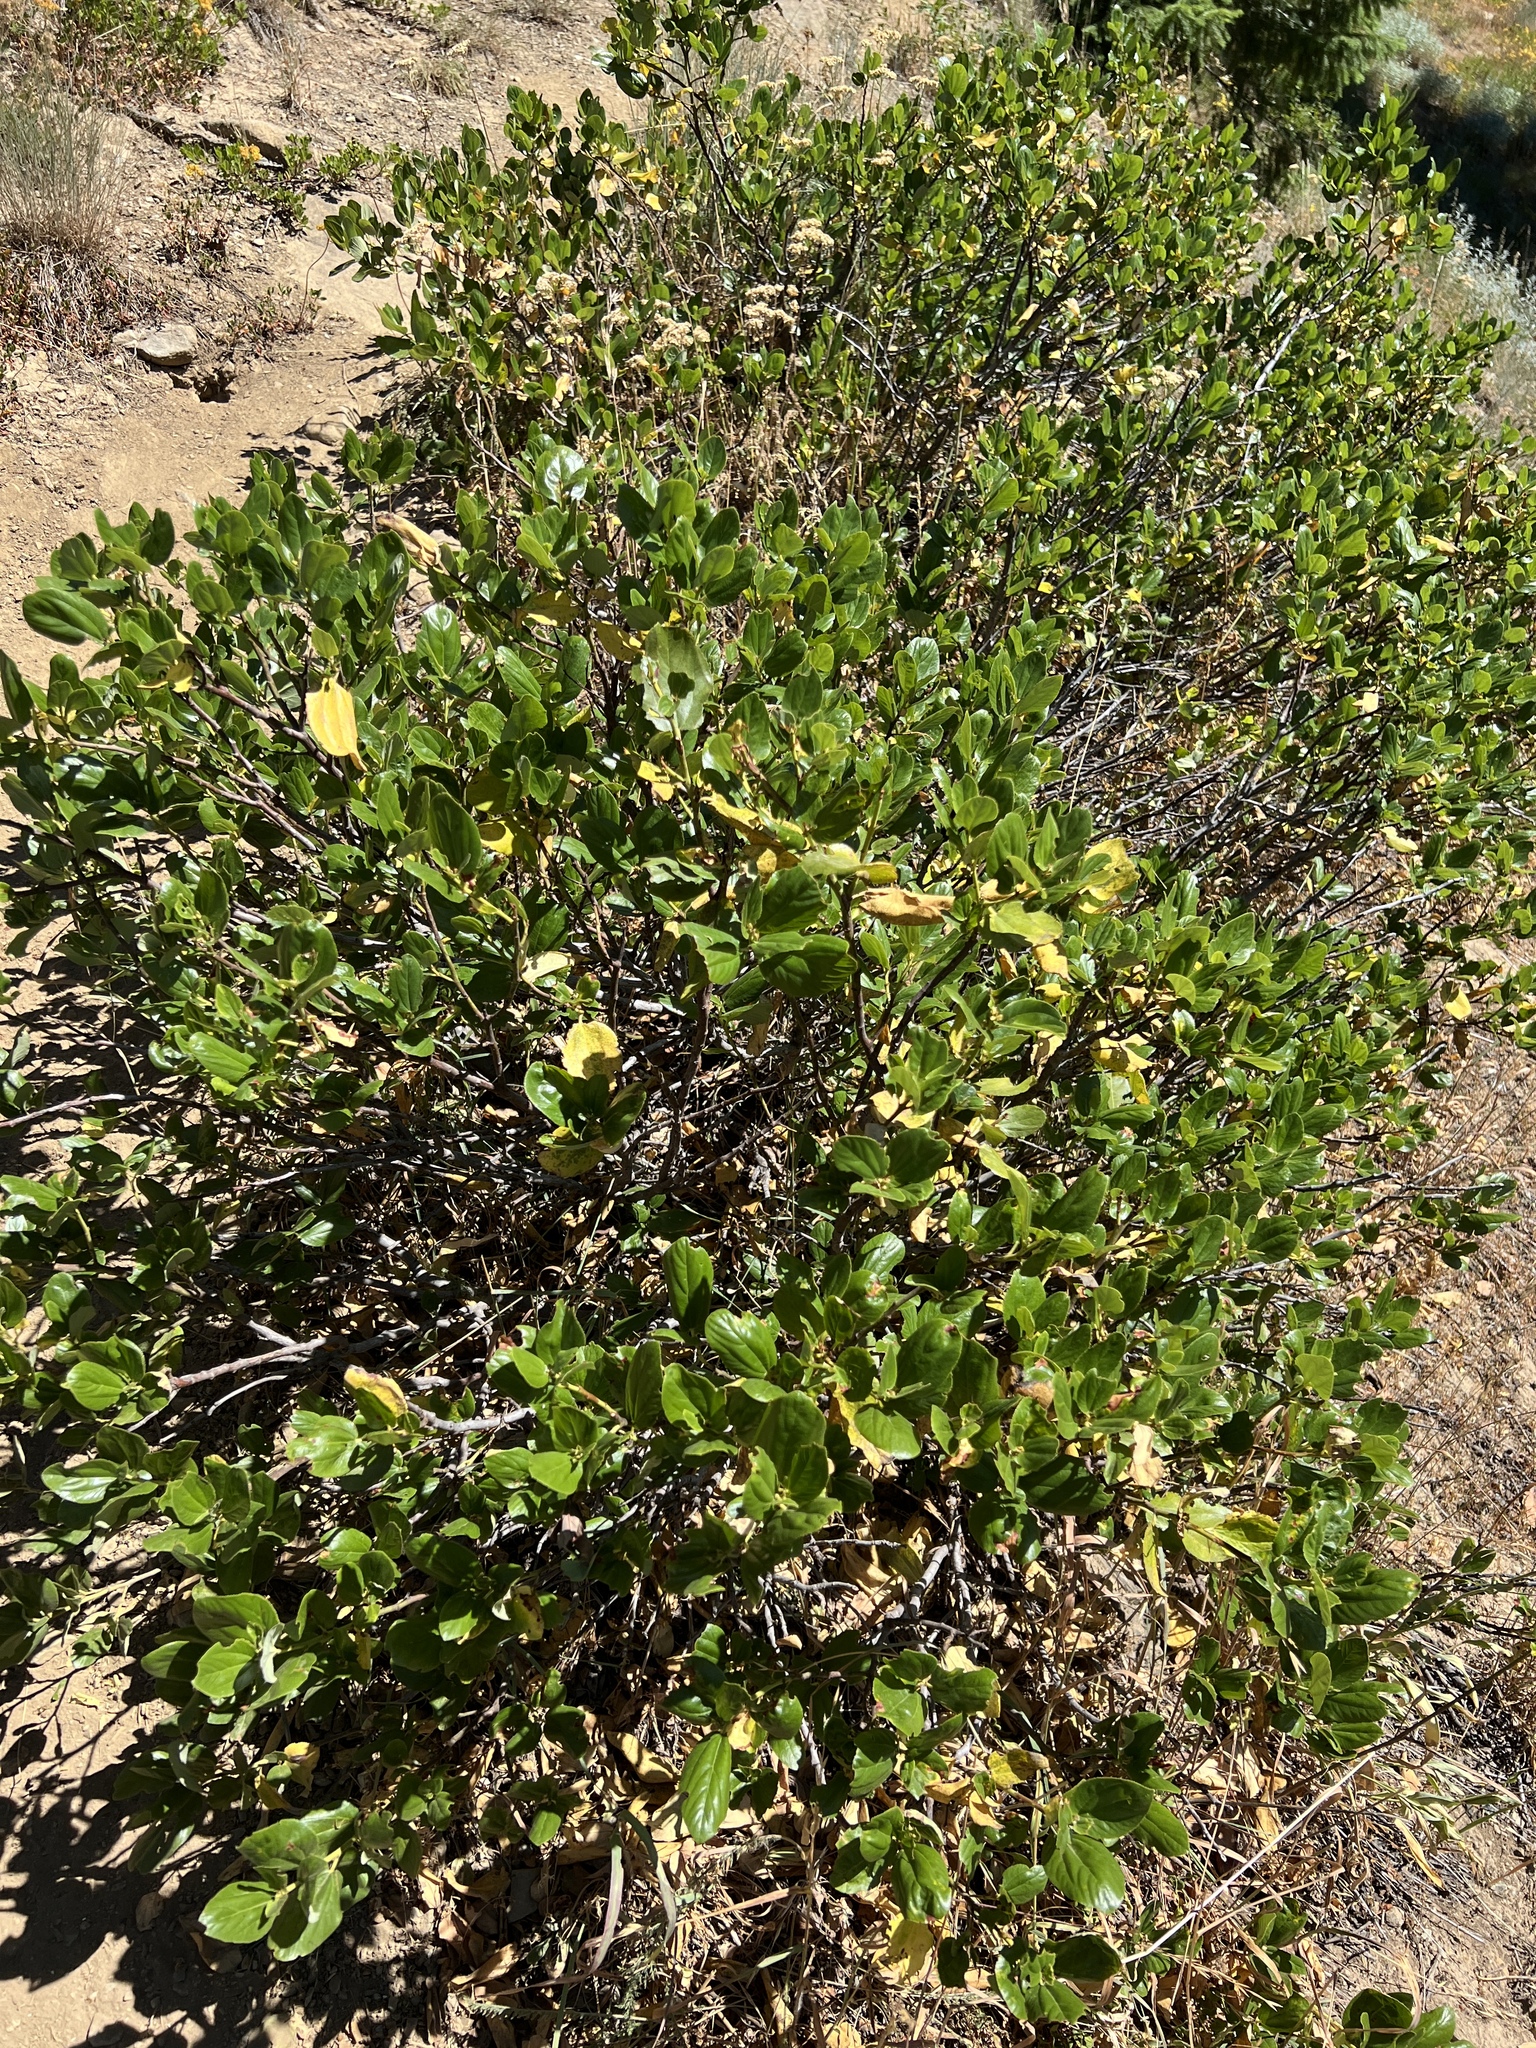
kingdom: Plantae
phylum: Tracheophyta
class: Magnoliopsida
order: Rosales
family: Rhamnaceae
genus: Ceanothus
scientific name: Ceanothus velutinus
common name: Snowbrush
